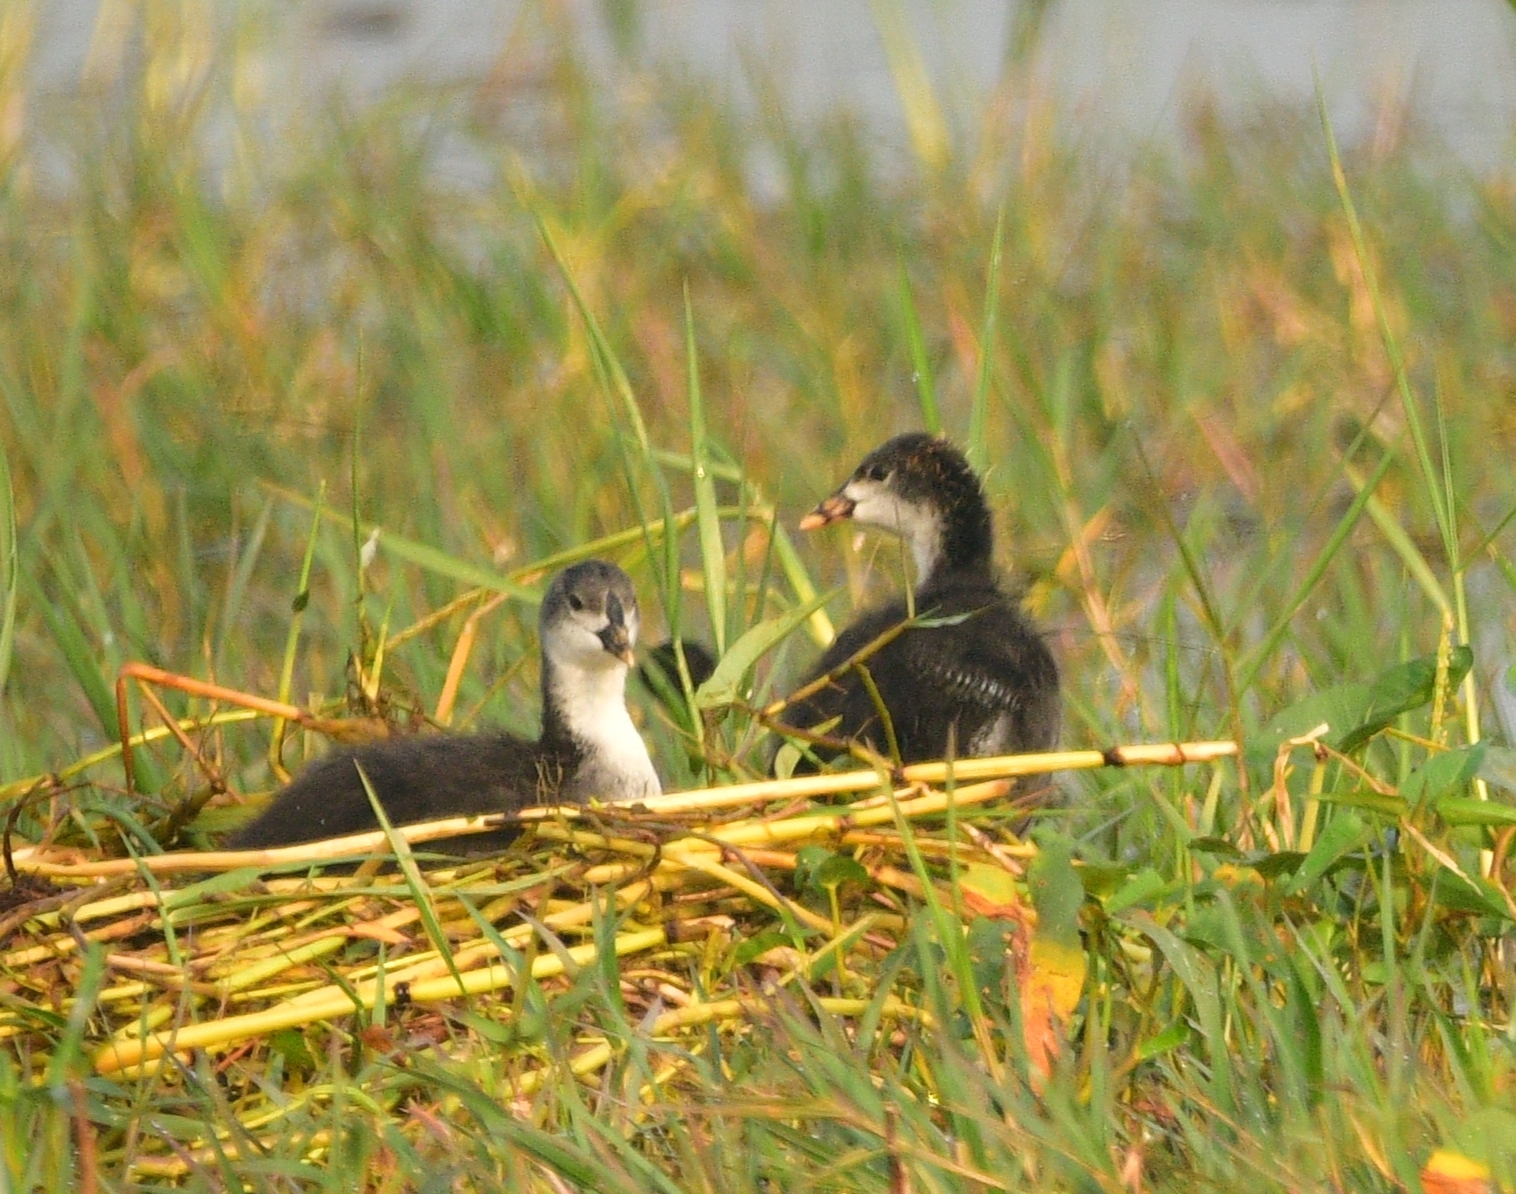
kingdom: Animalia
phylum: Chordata
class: Aves
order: Gruiformes
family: Rallidae
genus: Amaurornis
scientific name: Amaurornis phoenicurus
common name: White-breasted waterhen
